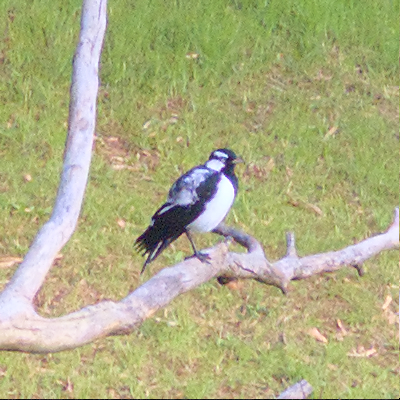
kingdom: Animalia
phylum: Chordata
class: Aves
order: Passeriformes
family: Monarchidae
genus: Grallina
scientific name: Grallina cyanoleuca
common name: Magpie-lark
